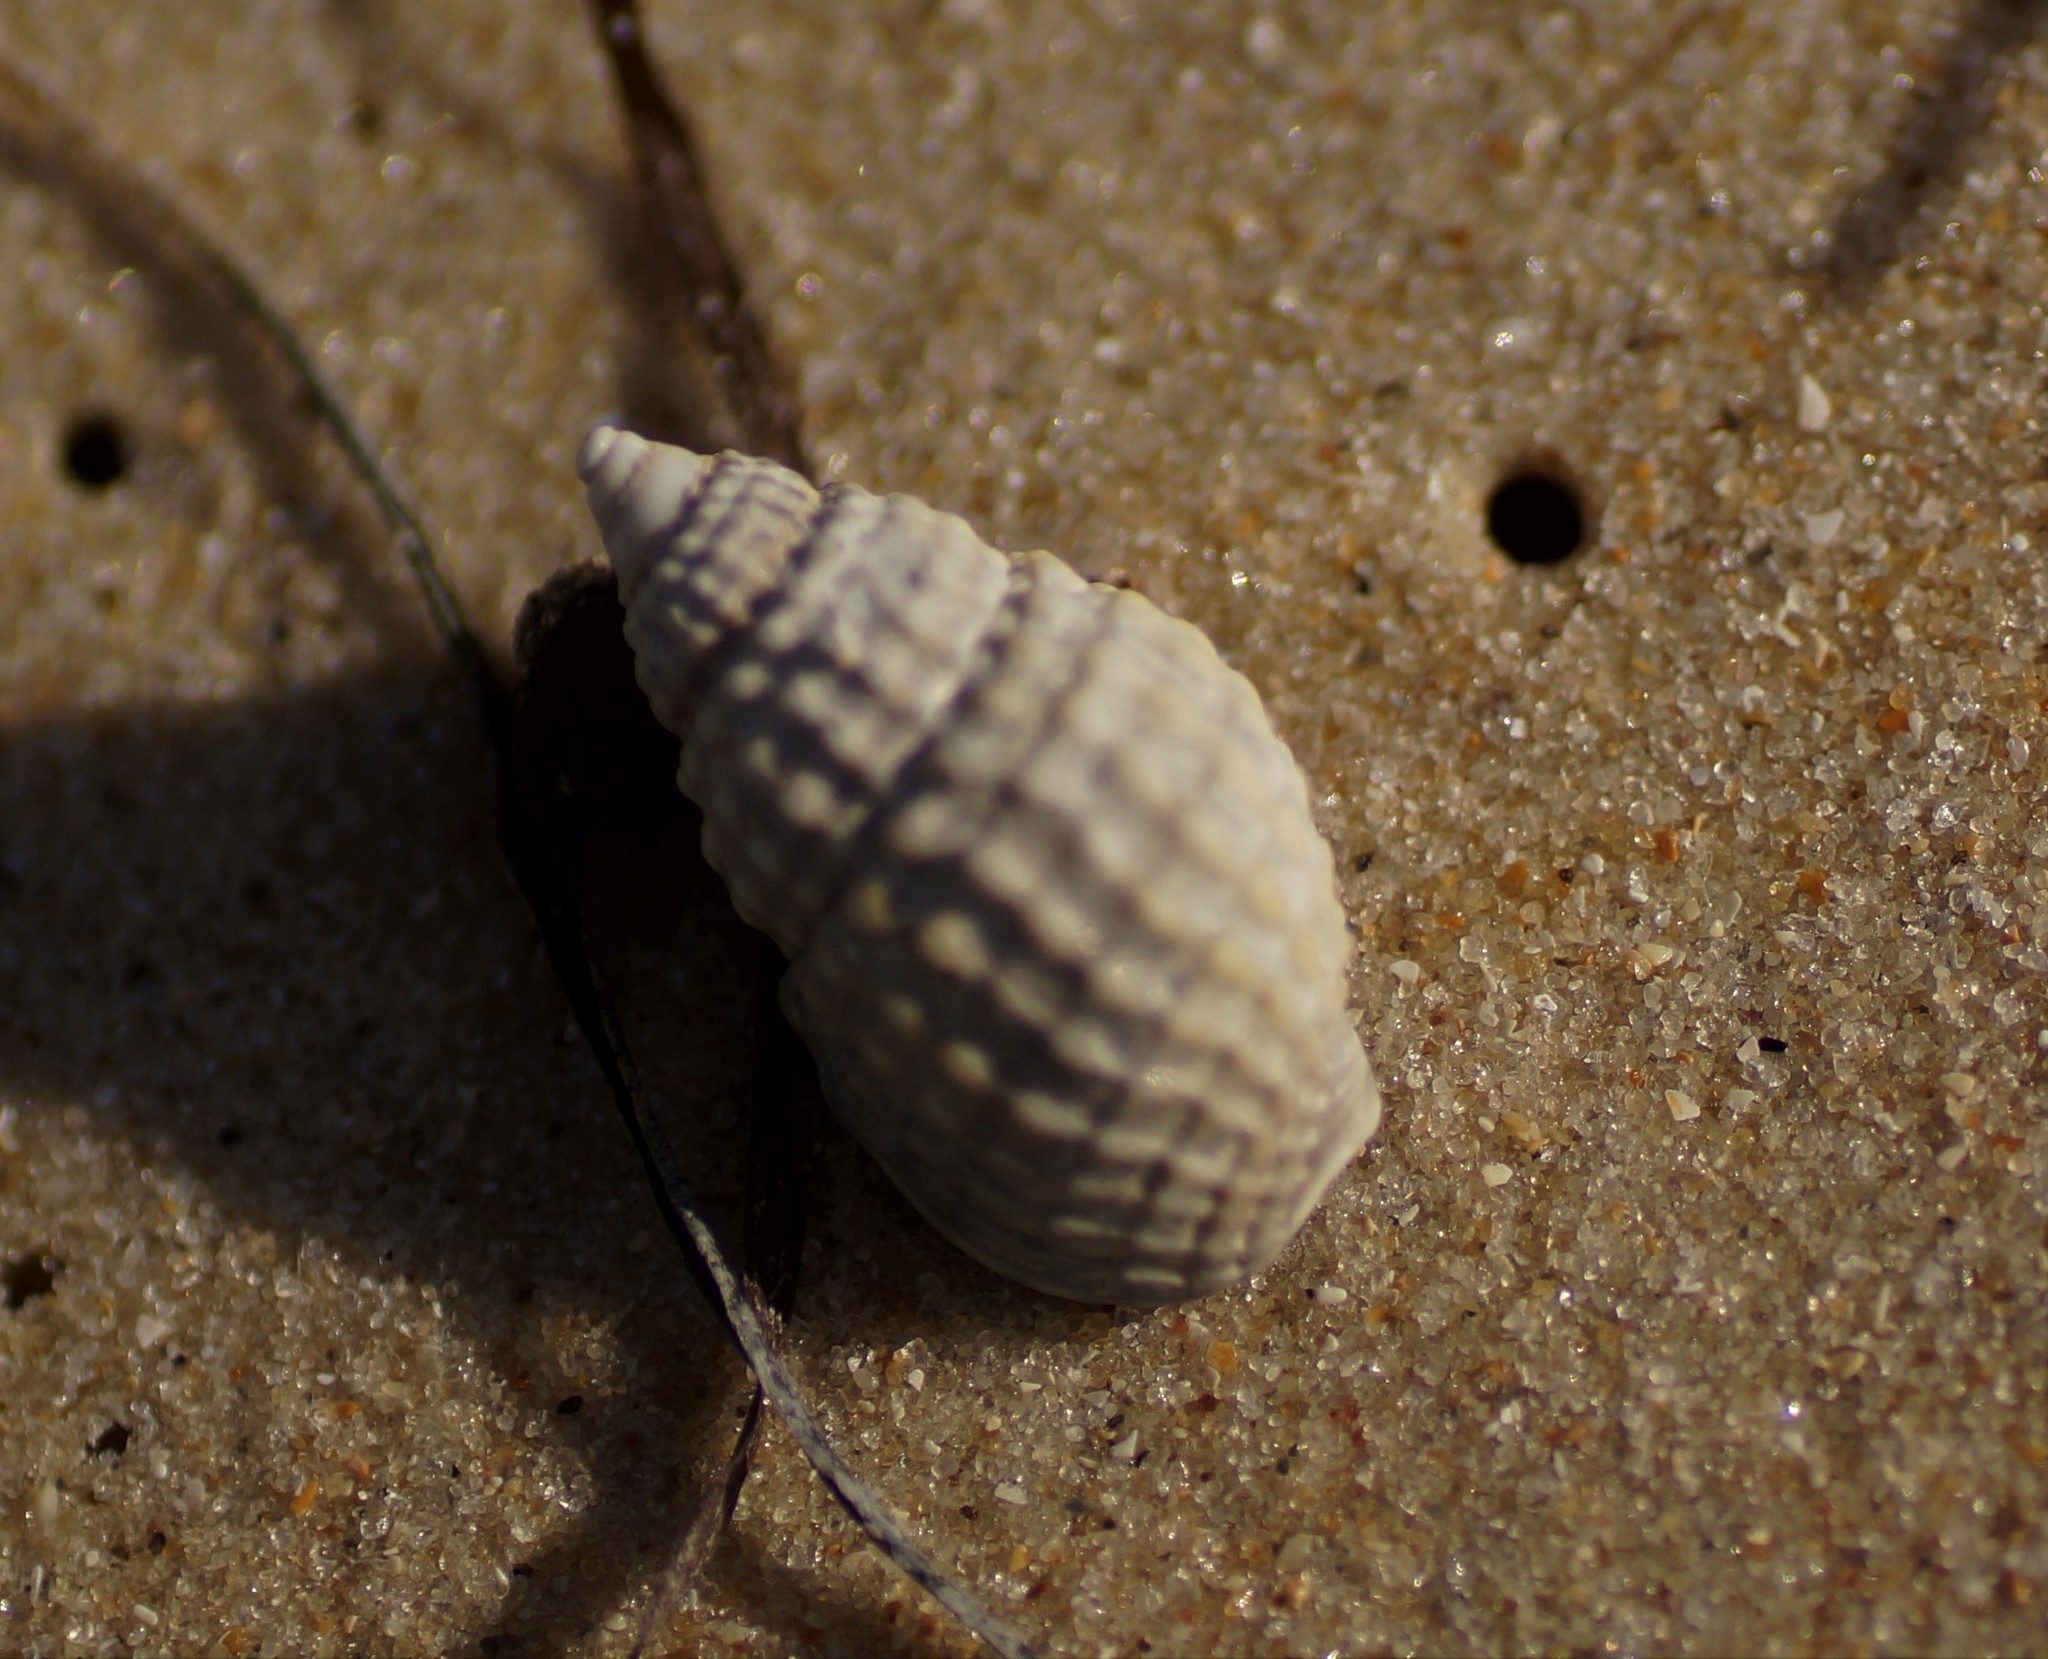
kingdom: Animalia
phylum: Mollusca
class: Gastropoda
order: Neogastropoda
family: Nassariidae
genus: Nassarius
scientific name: Nassarius pyrrhus
